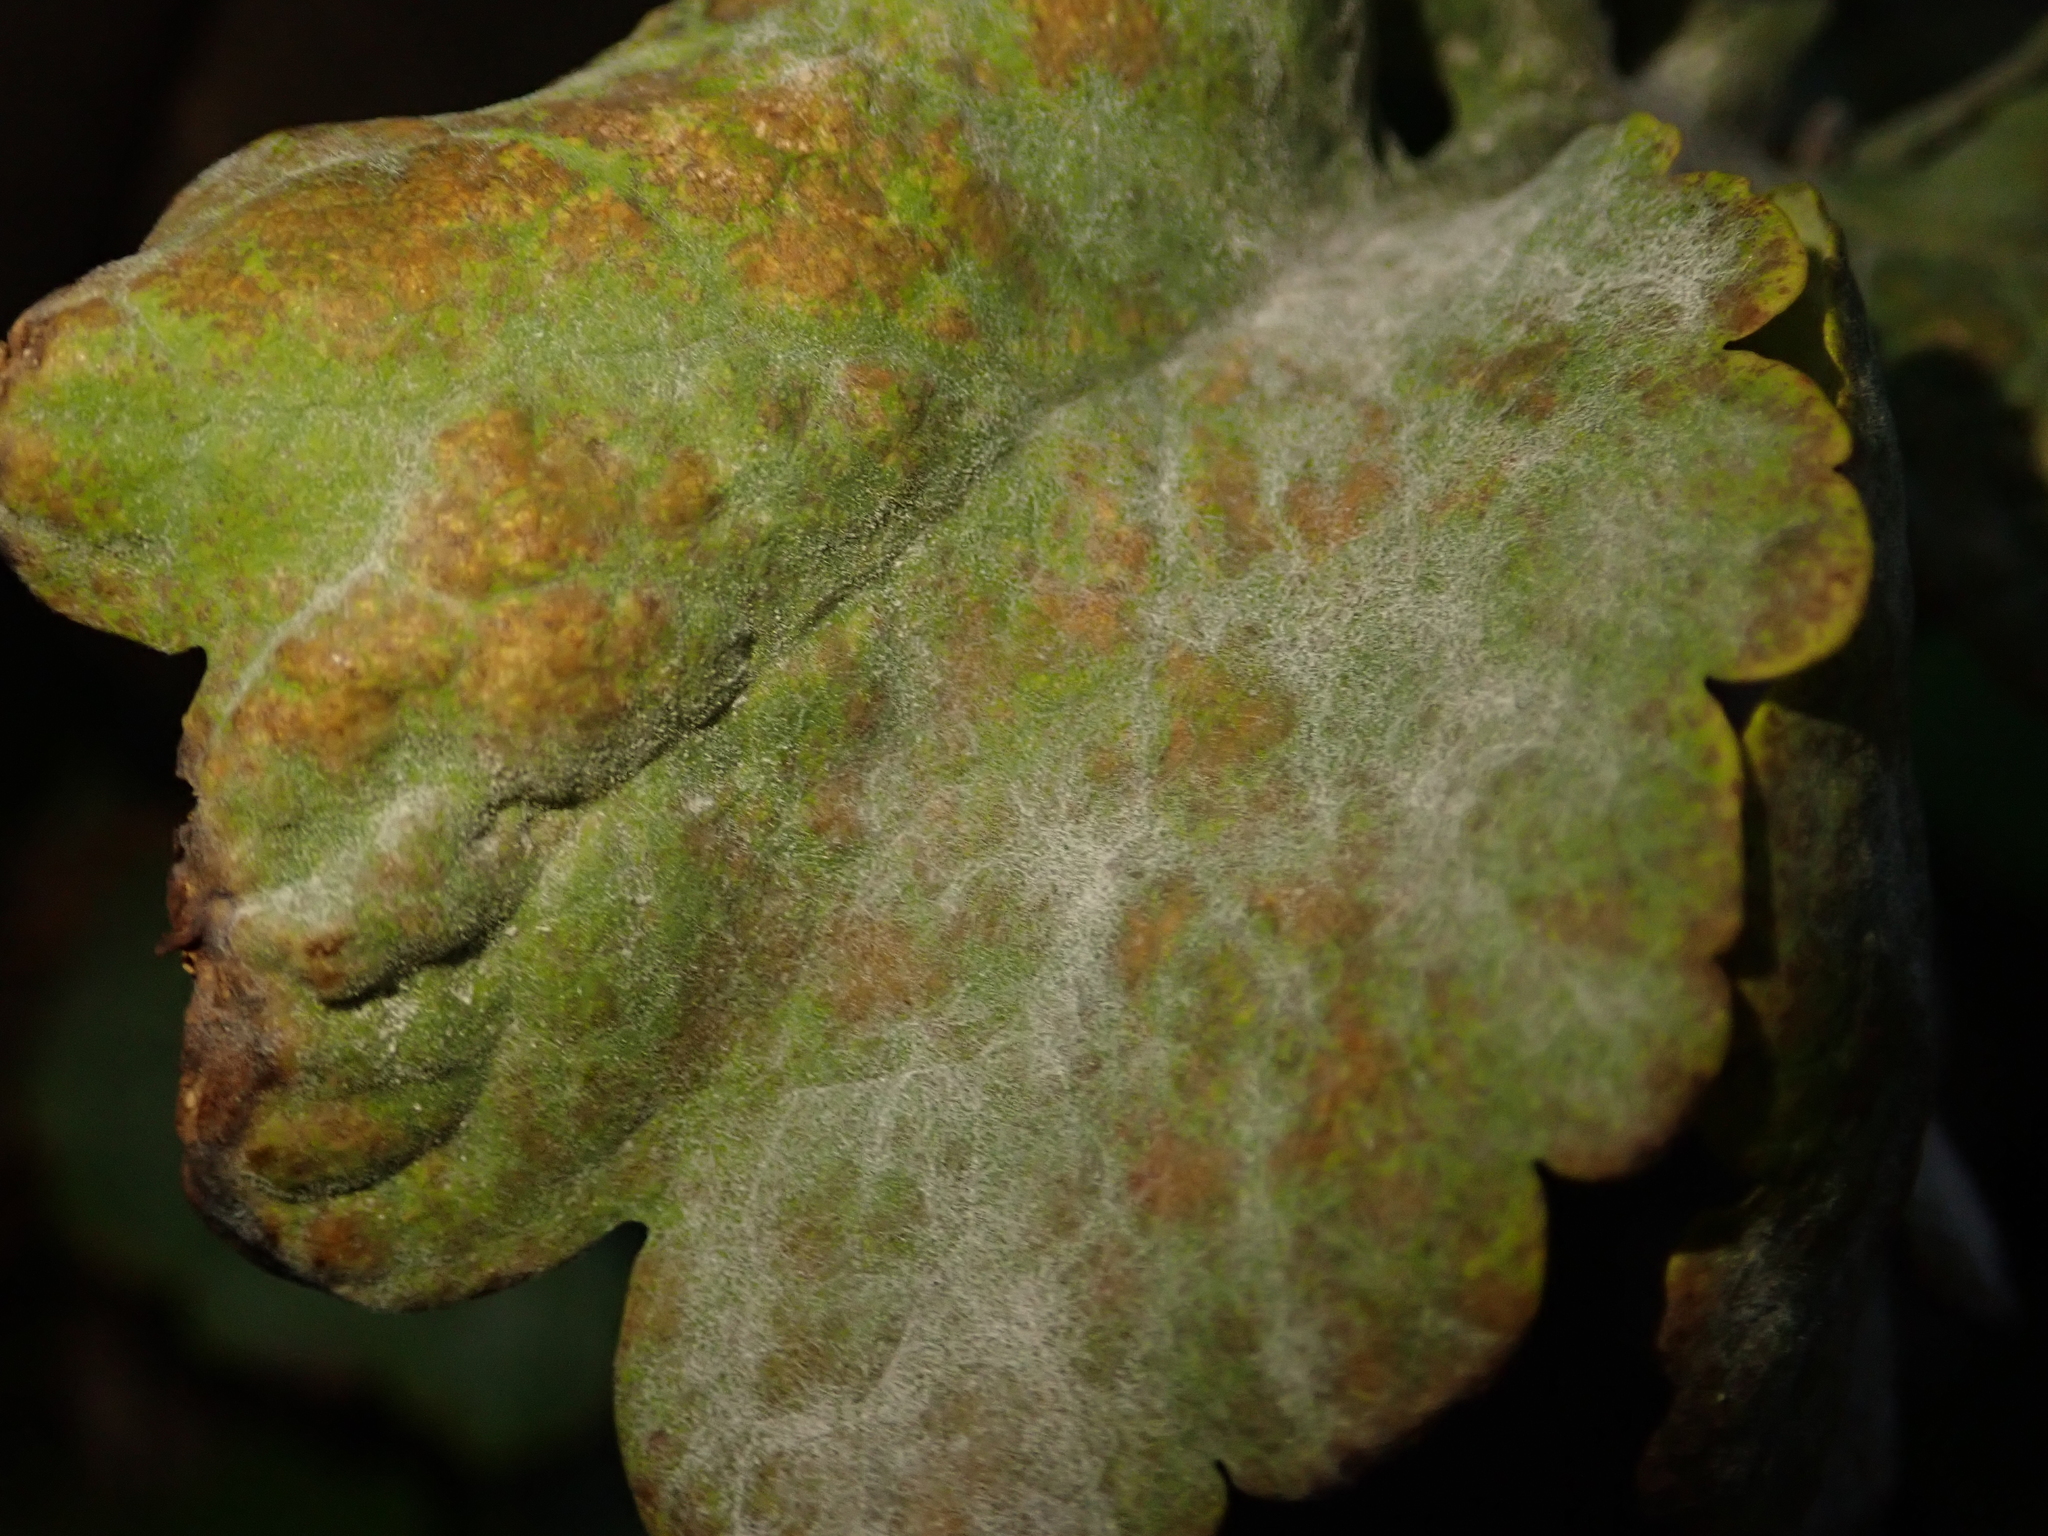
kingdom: Fungi
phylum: Ascomycota
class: Leotiomycetes
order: Helotiales
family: Erysiphaceae
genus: Erysiphe
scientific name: Erysiphe macleayae
